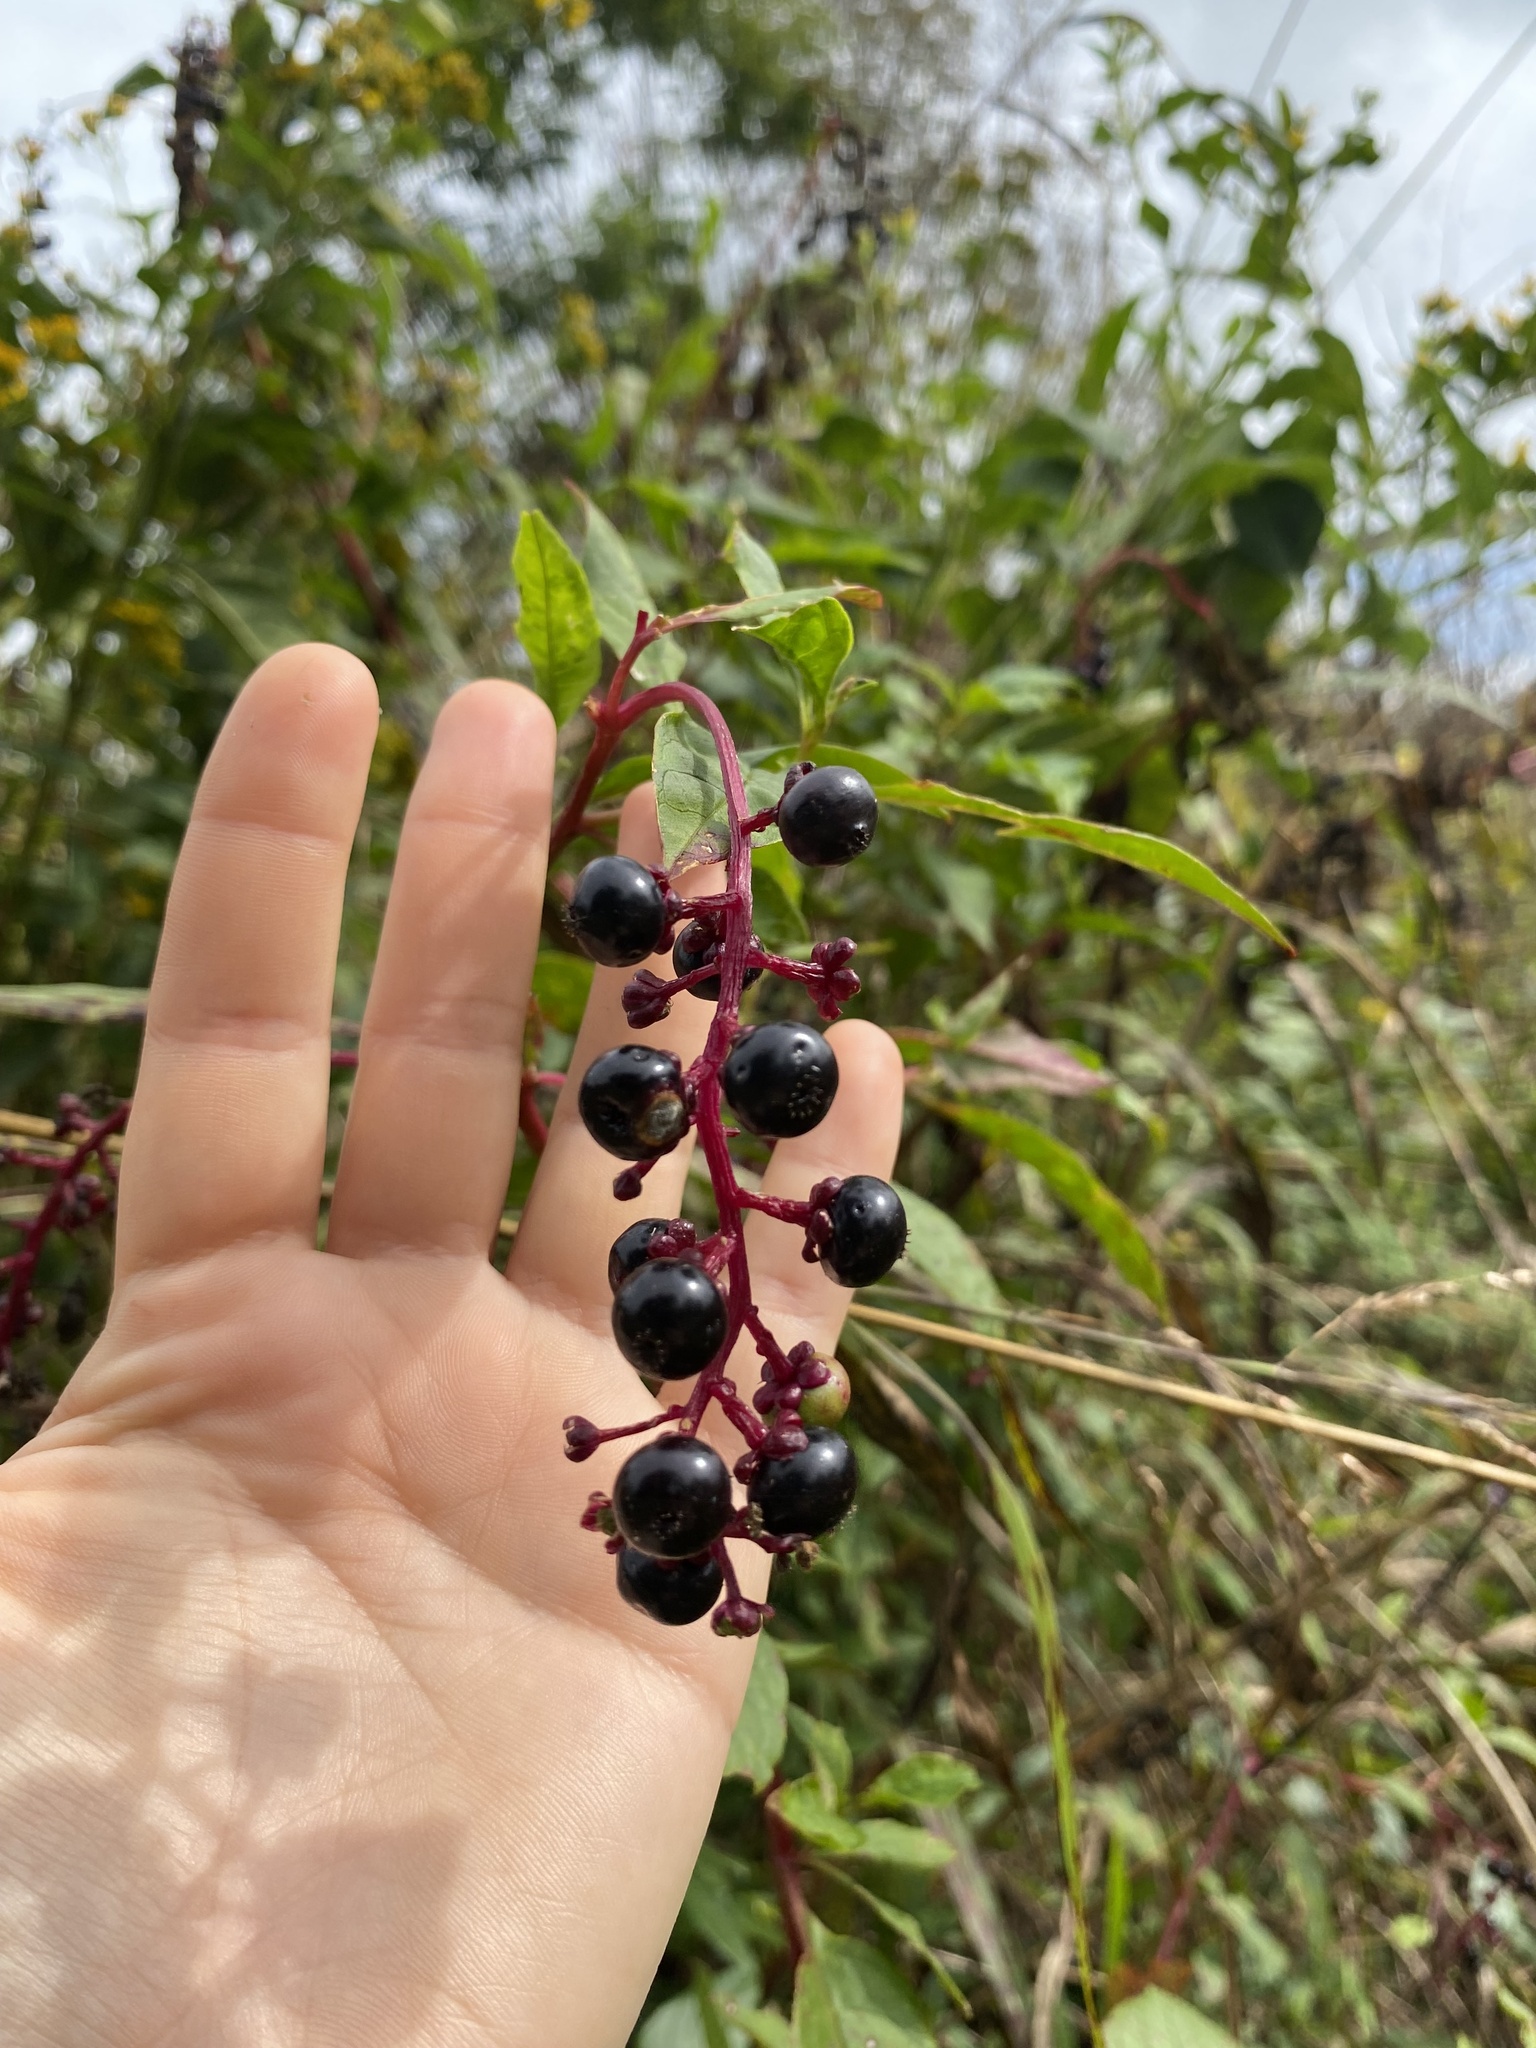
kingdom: Plantae
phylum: Tracheophyta
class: Magnoliopsida
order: Caryophyllales
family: Phytolaccaceae
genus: Phytolacca
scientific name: Phytolacca americana
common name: American pokeweed
